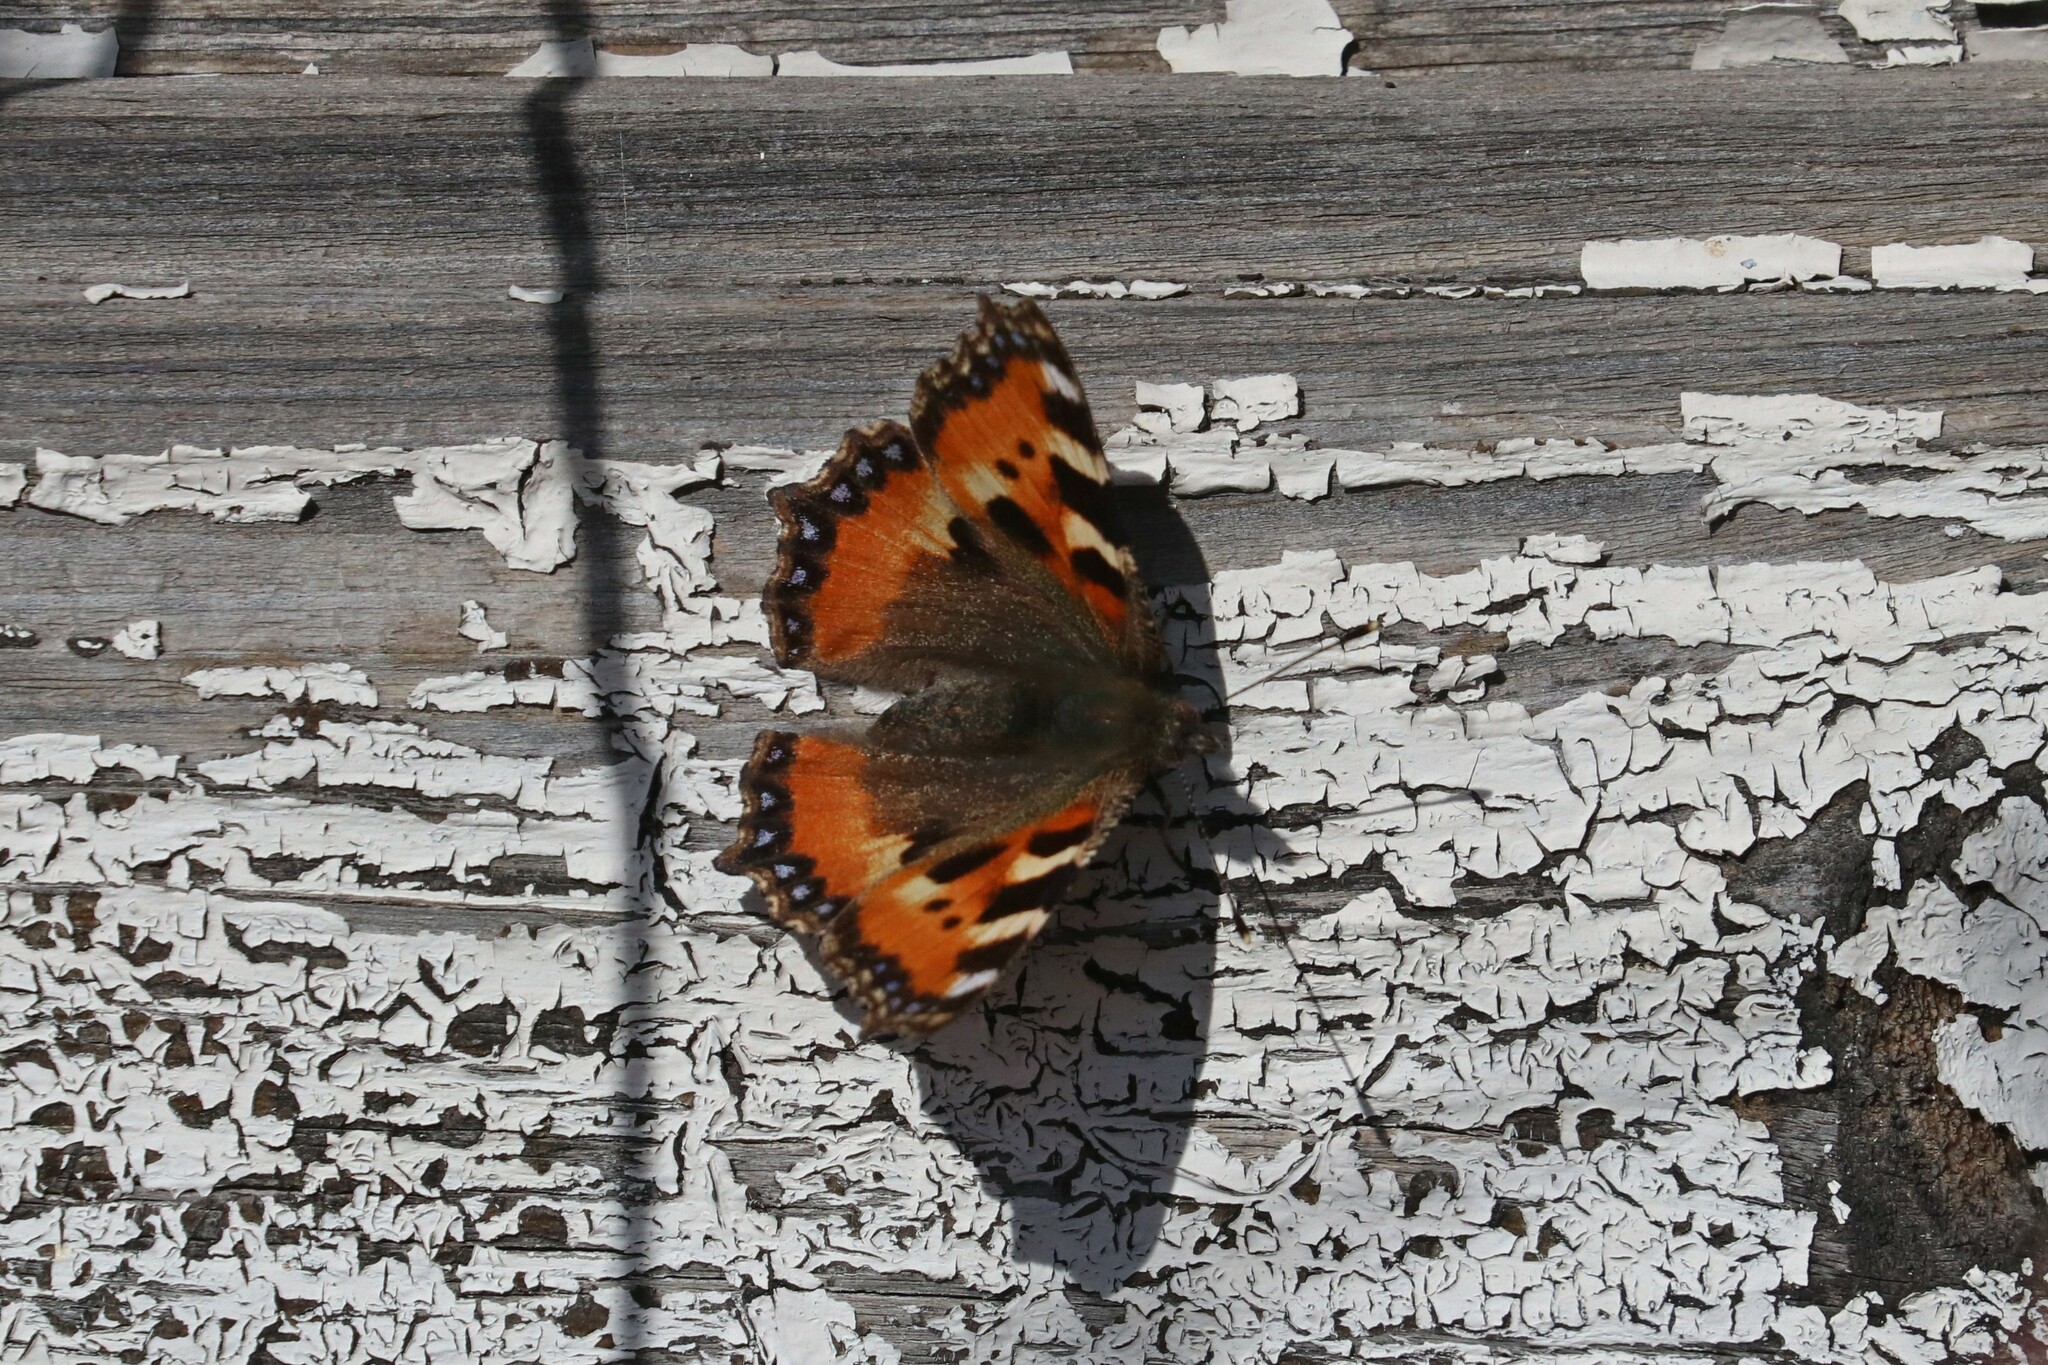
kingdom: Animalia
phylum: Arthropoda
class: Insecta
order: Lepidoptera
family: Nymphalidae
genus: Aglais
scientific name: Aglais urticae
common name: Small tortoiseshell
